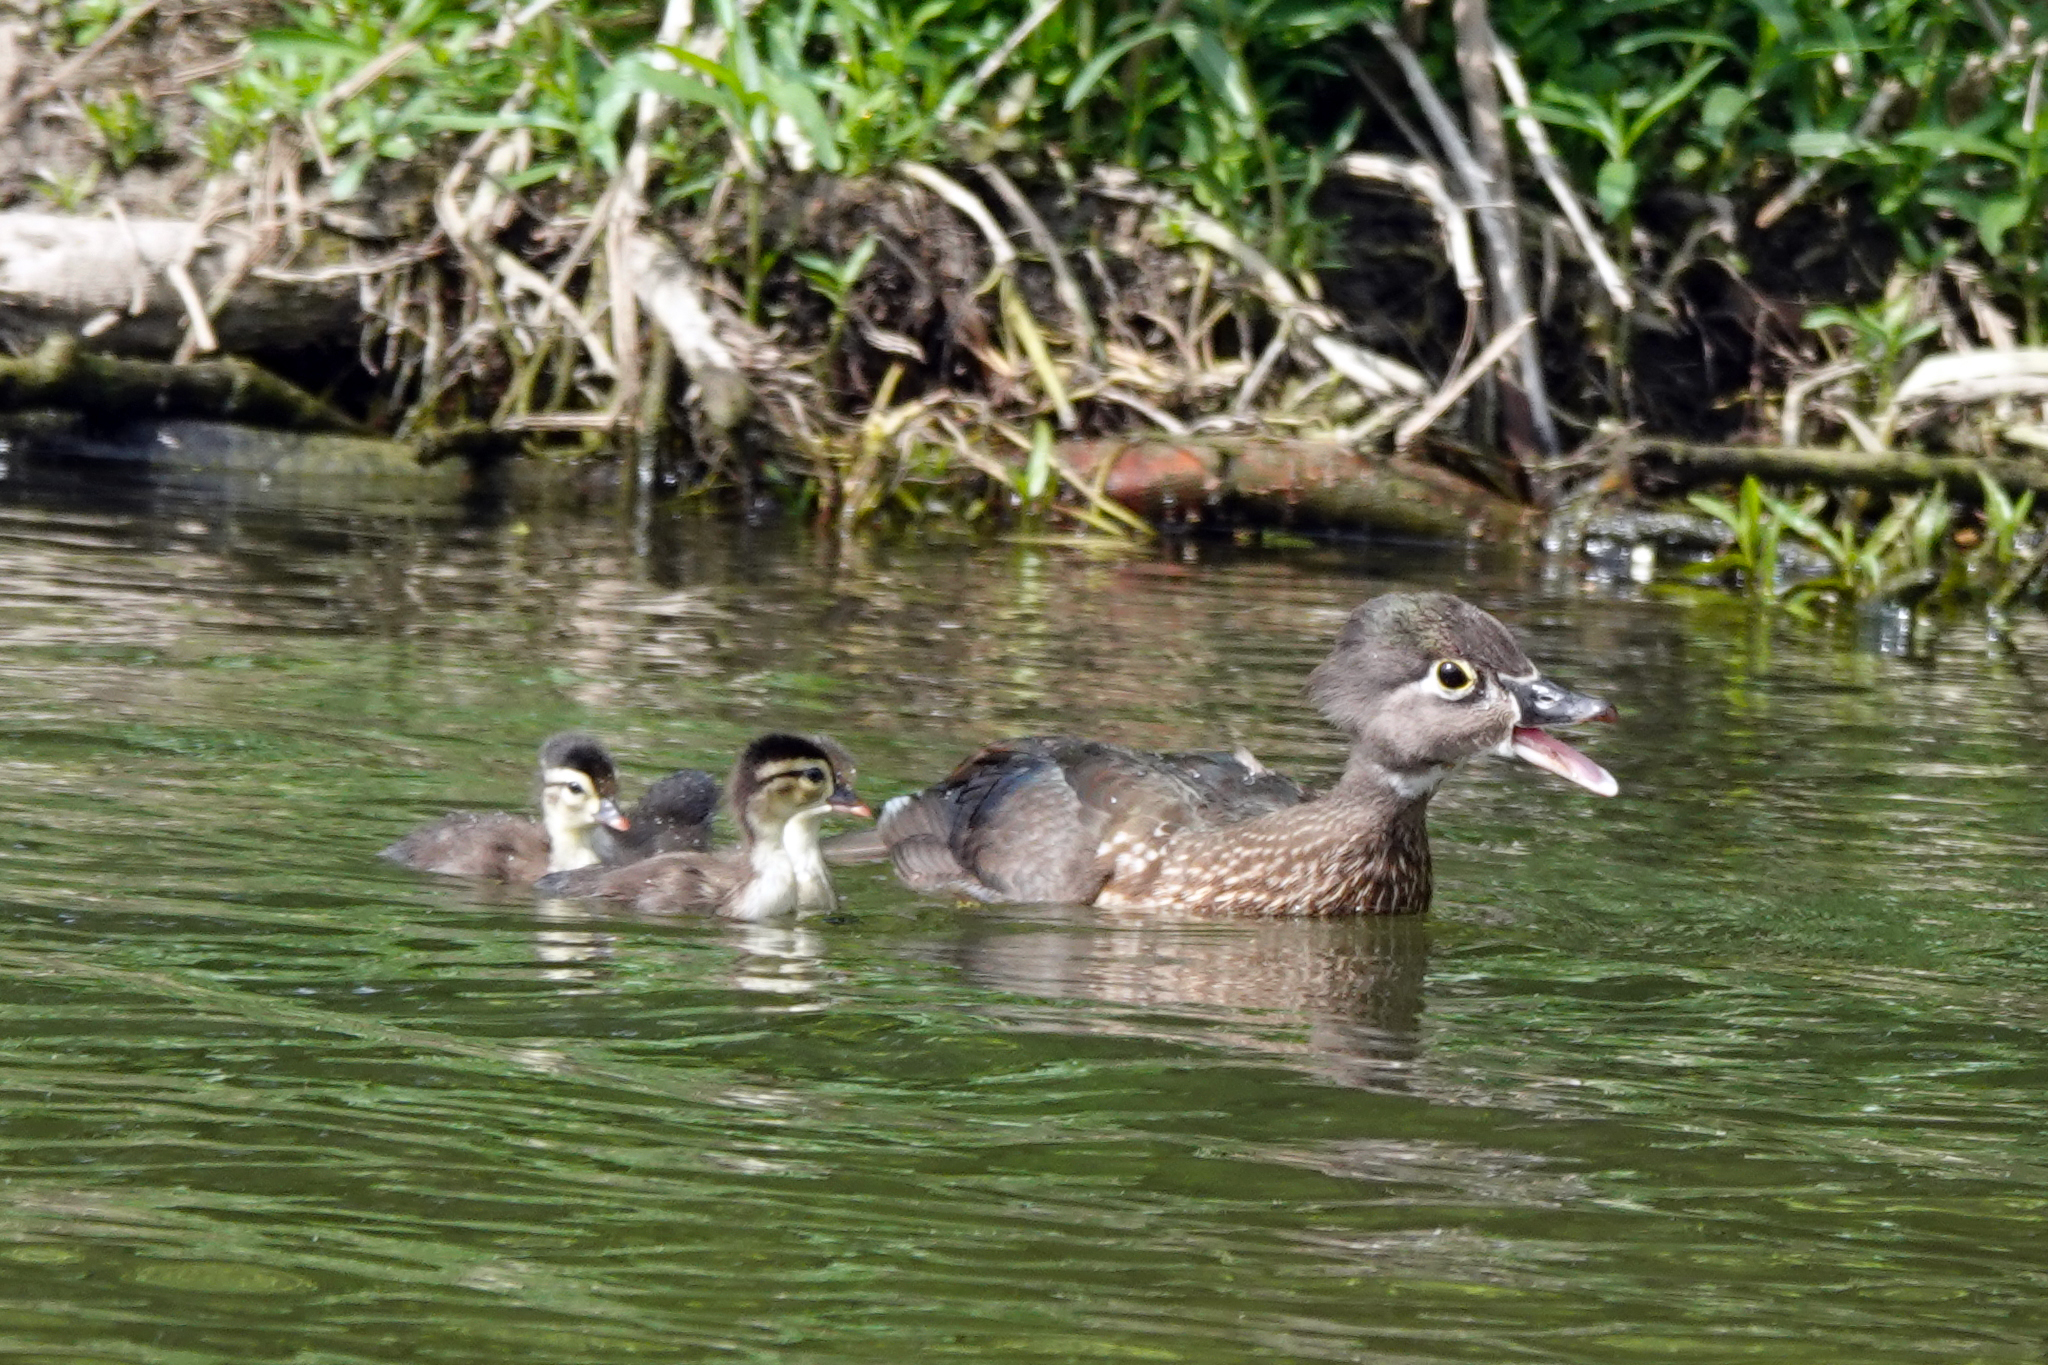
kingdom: Animalia
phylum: Chordata
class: Aves
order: Anseriformes
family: Anatidae
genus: Aix
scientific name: Aix sponsa
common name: Wood duck
